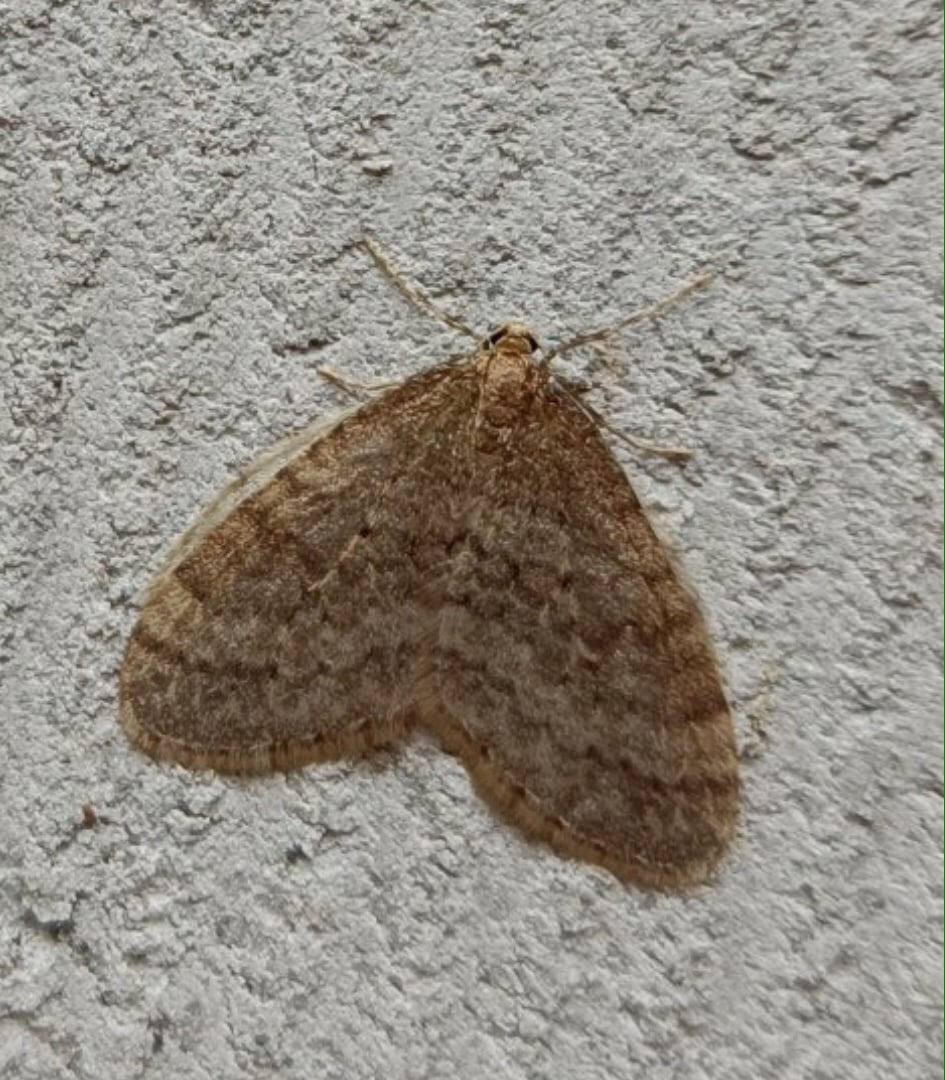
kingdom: Animalia
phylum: Arthropoda
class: Insecta
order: Lepidoptera
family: Geometridae
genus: Operophtera
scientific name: Operophtera brumata
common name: Winter moth
